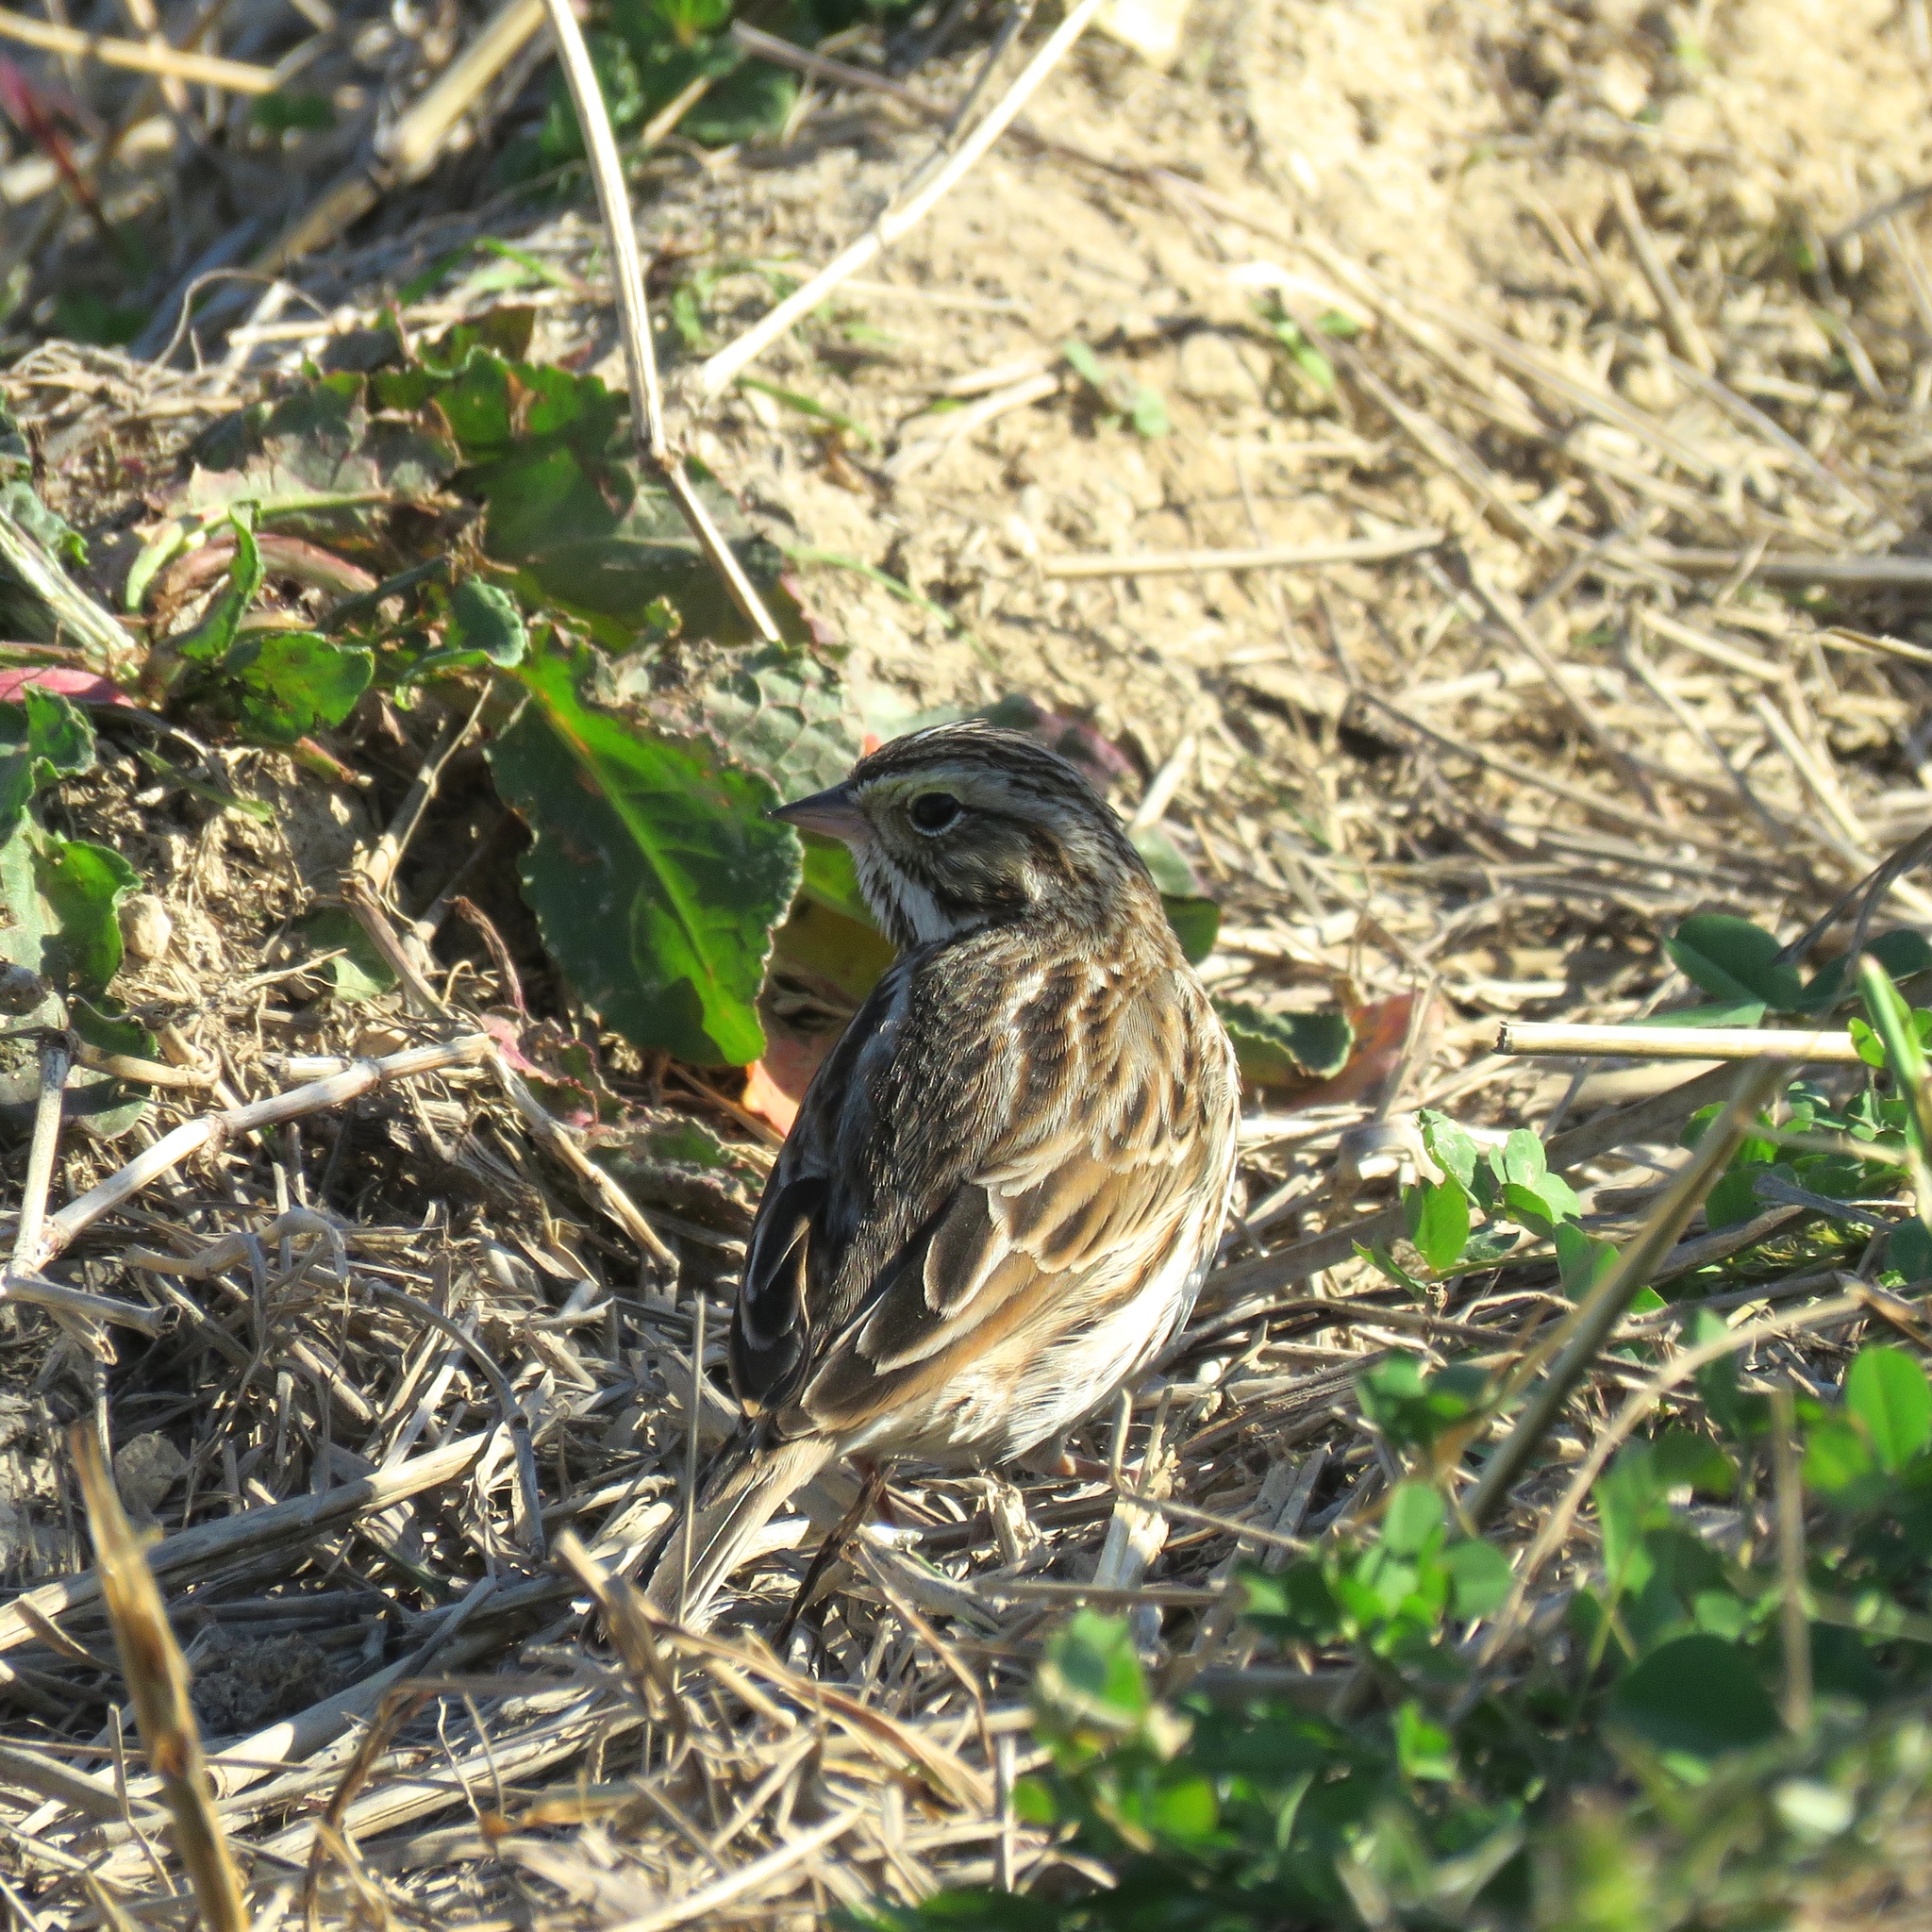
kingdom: Animalia
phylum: Chordata
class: Aves
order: Passeriformes
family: Passerellidae
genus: Passerculus
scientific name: Passerculus sandwichensis
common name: Savannah sparrow
